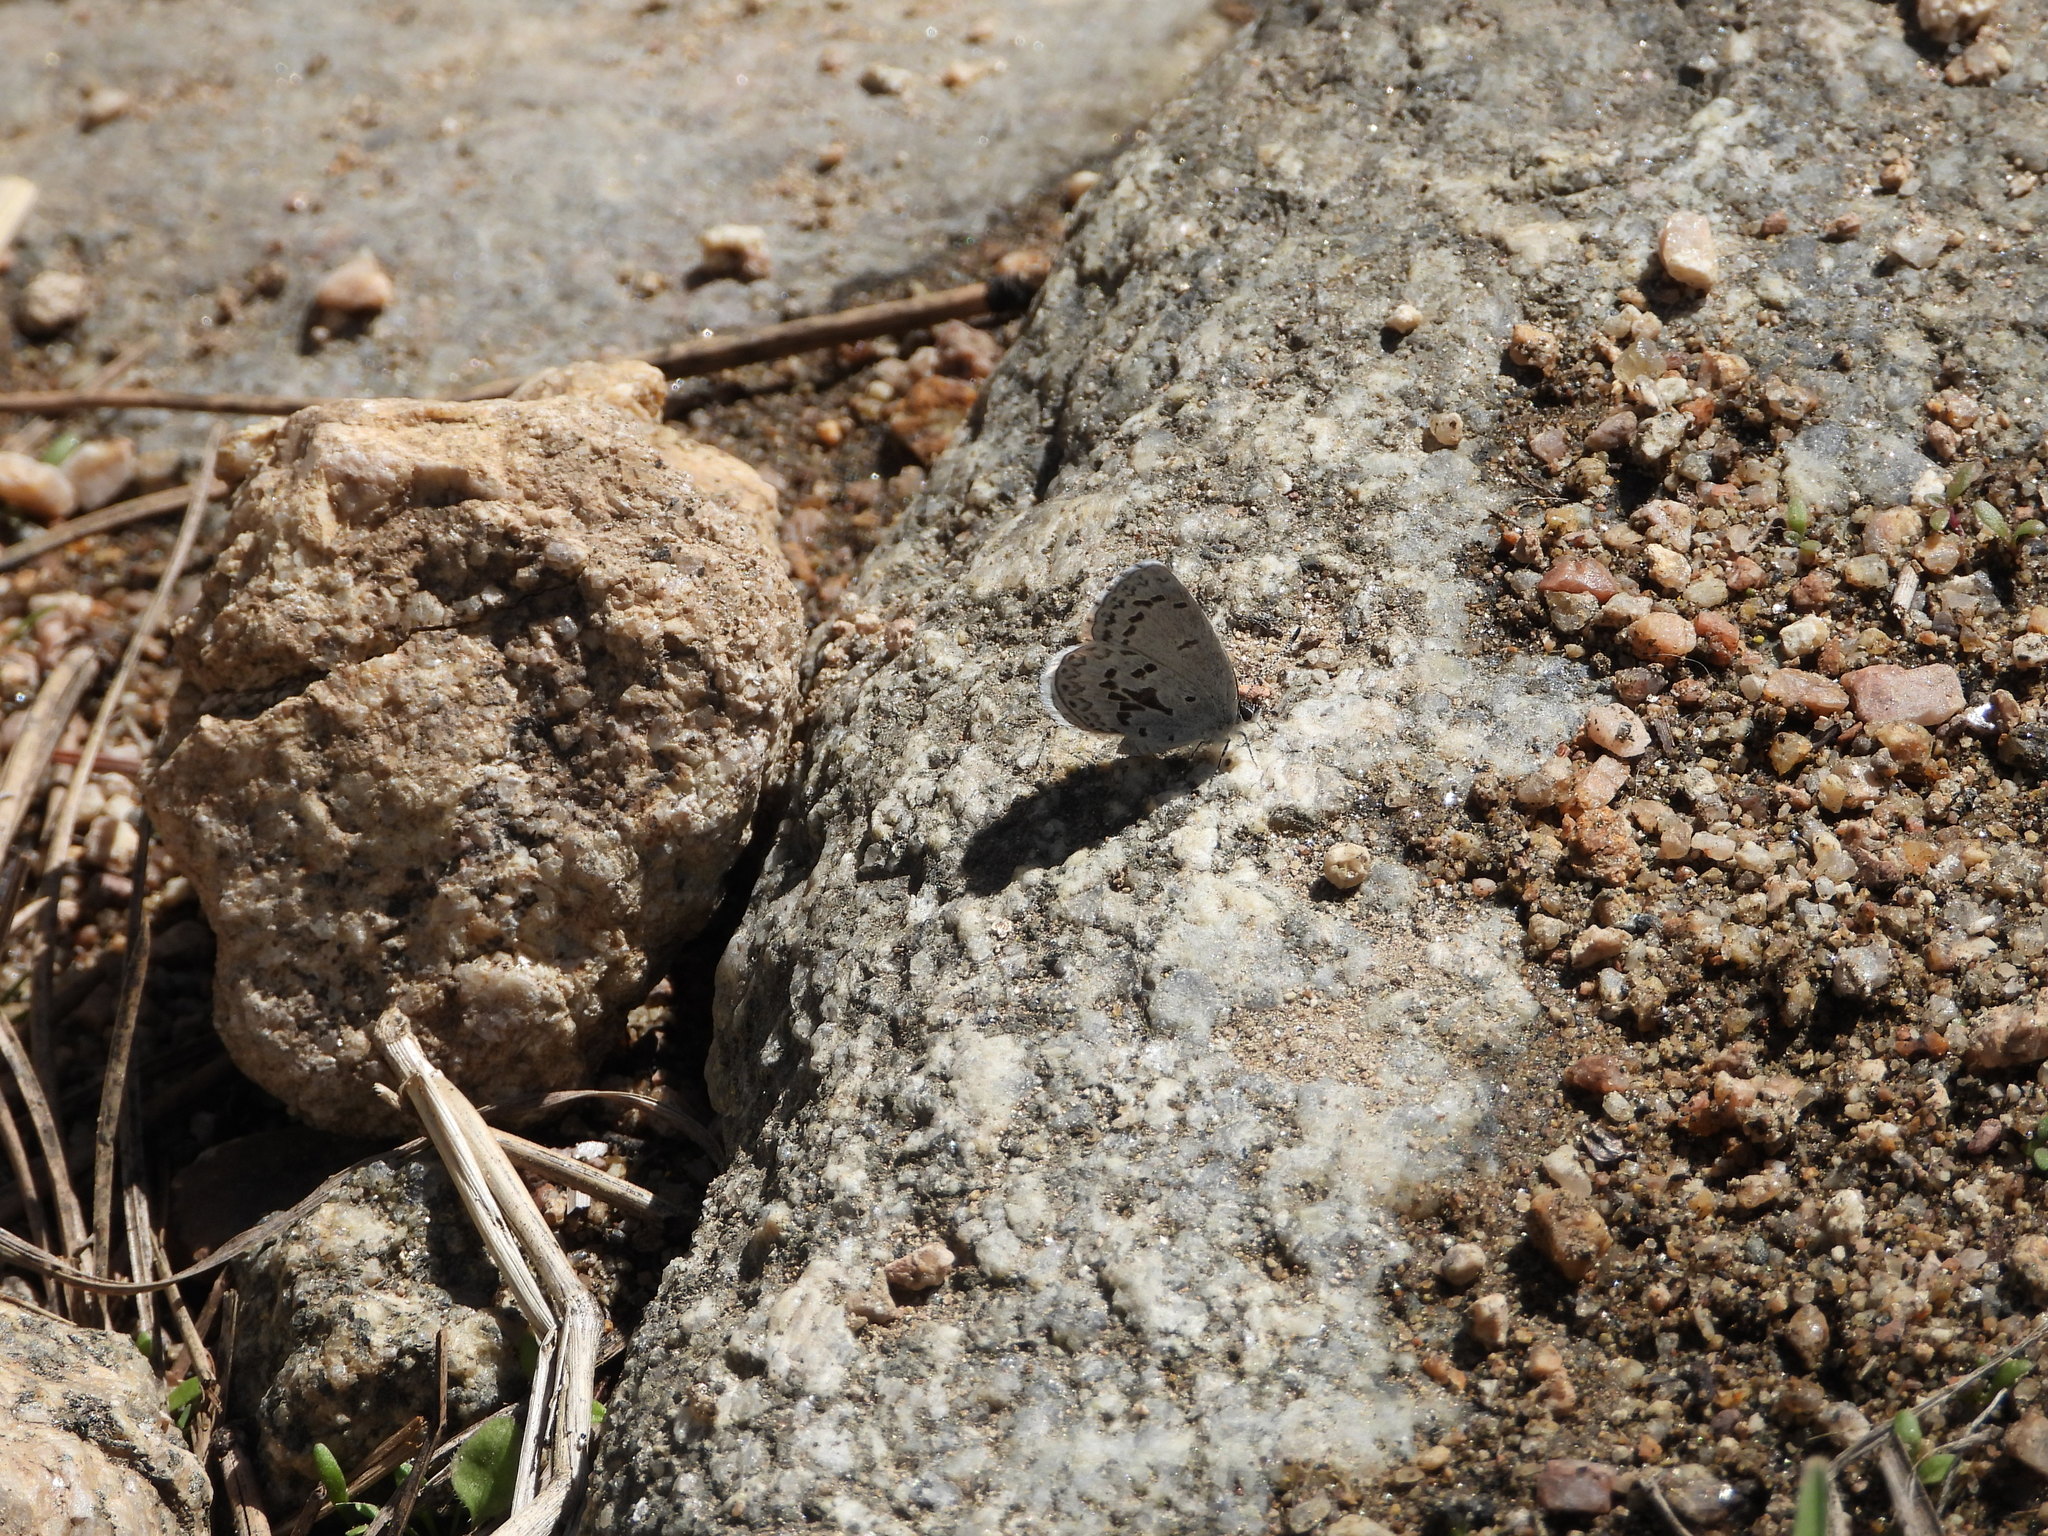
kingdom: Animalia
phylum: Arthropoda
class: Insecta
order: Lepidoptera
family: Lycaenidae
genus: Celastrina
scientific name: Celastrina ladon
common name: Spring azure
